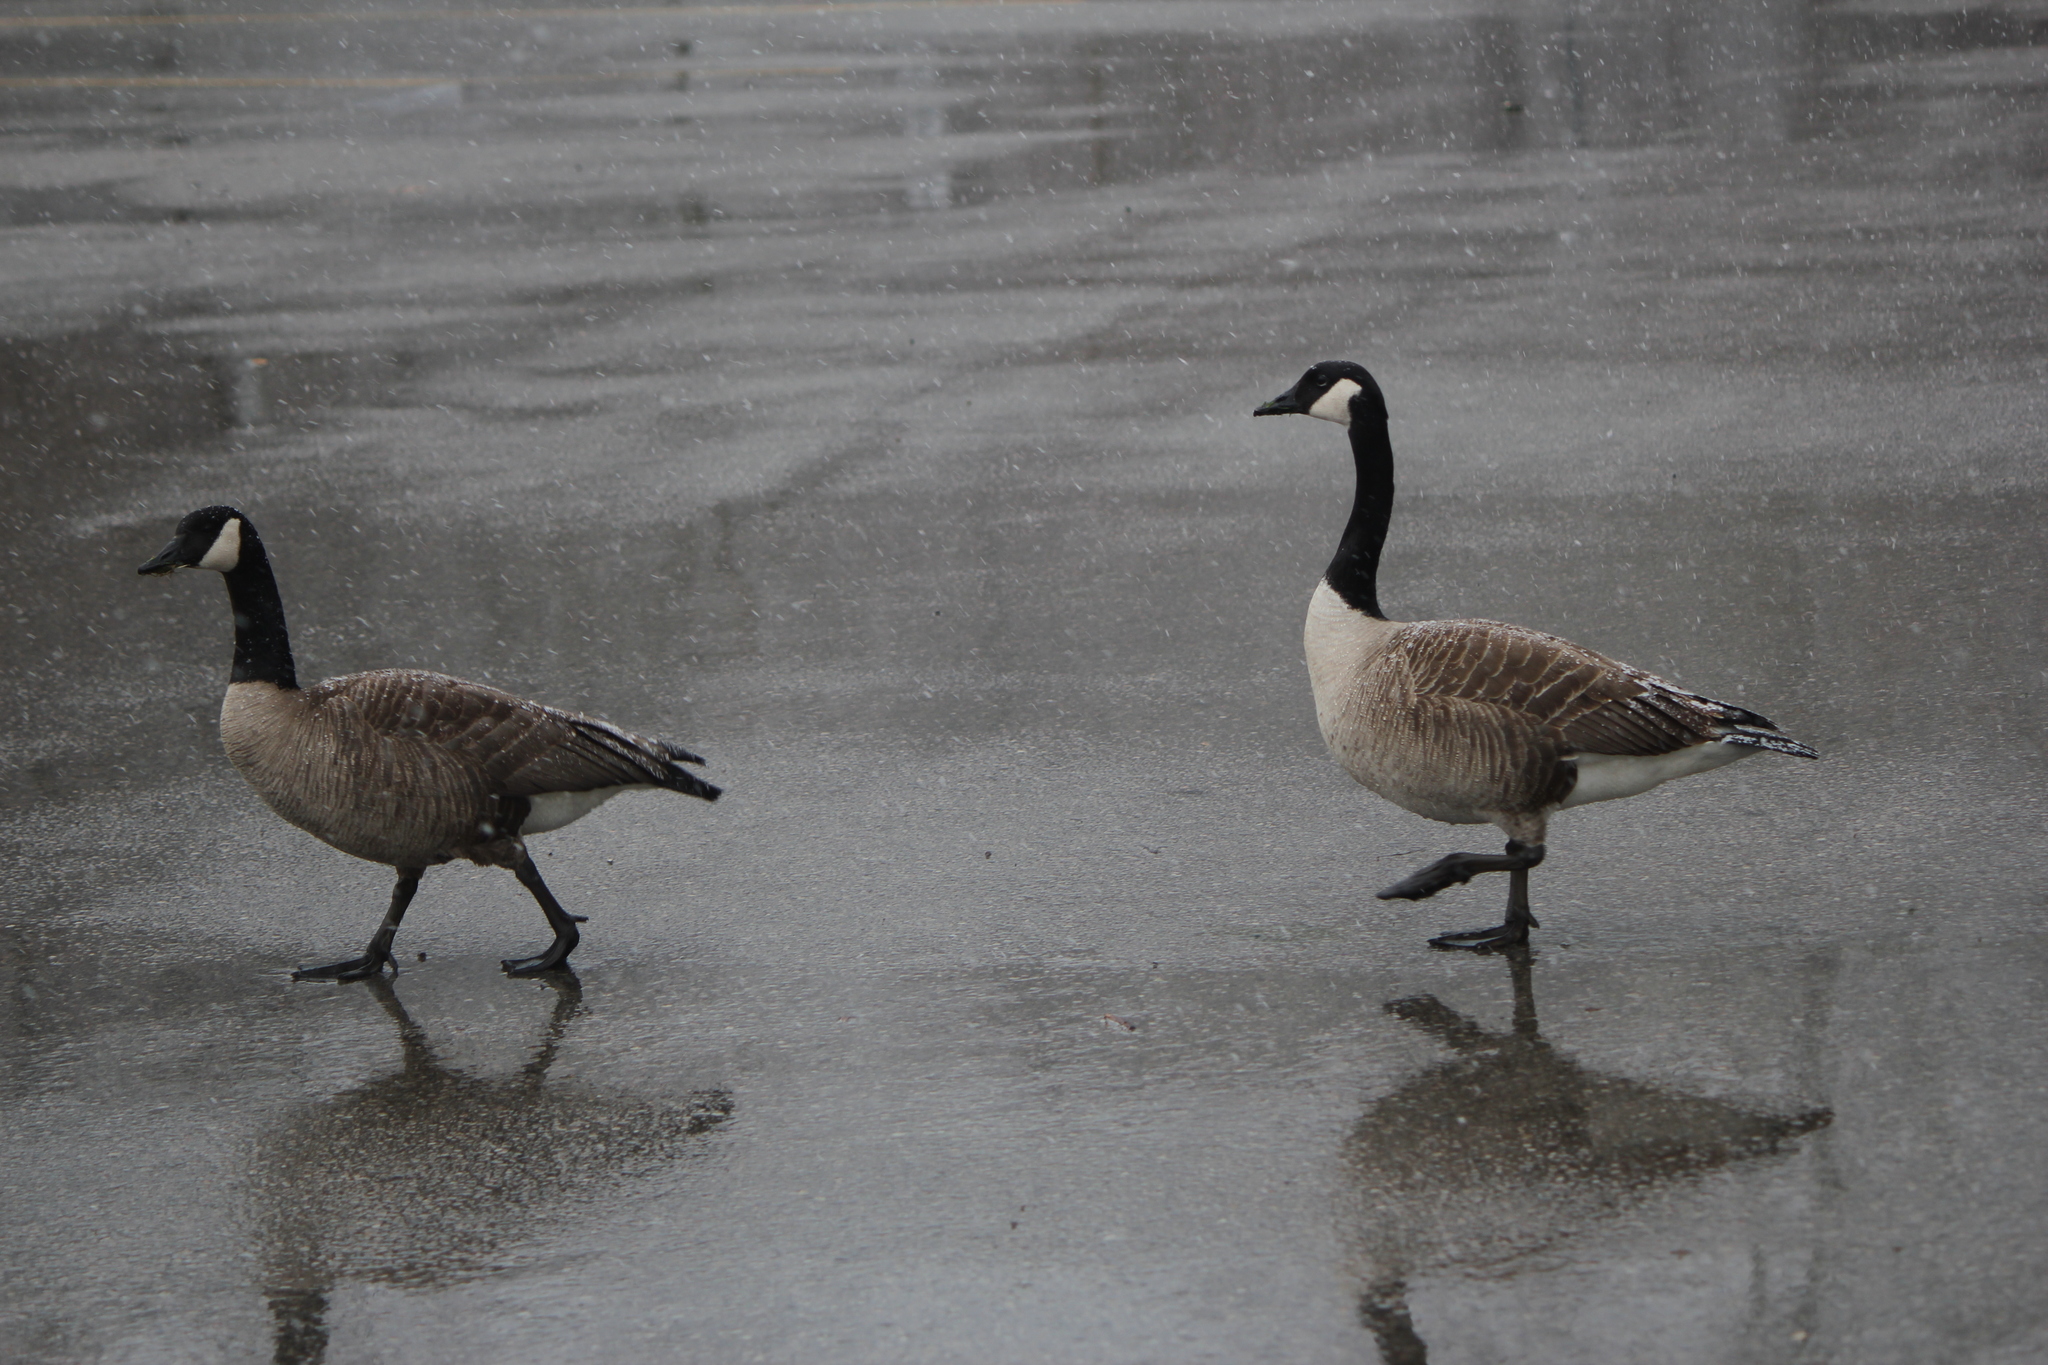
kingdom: Animalia
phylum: Chordata
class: Aves
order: Anseriformes
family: Anatidae
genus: Branta
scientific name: Branta canadensis
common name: Canada goose
